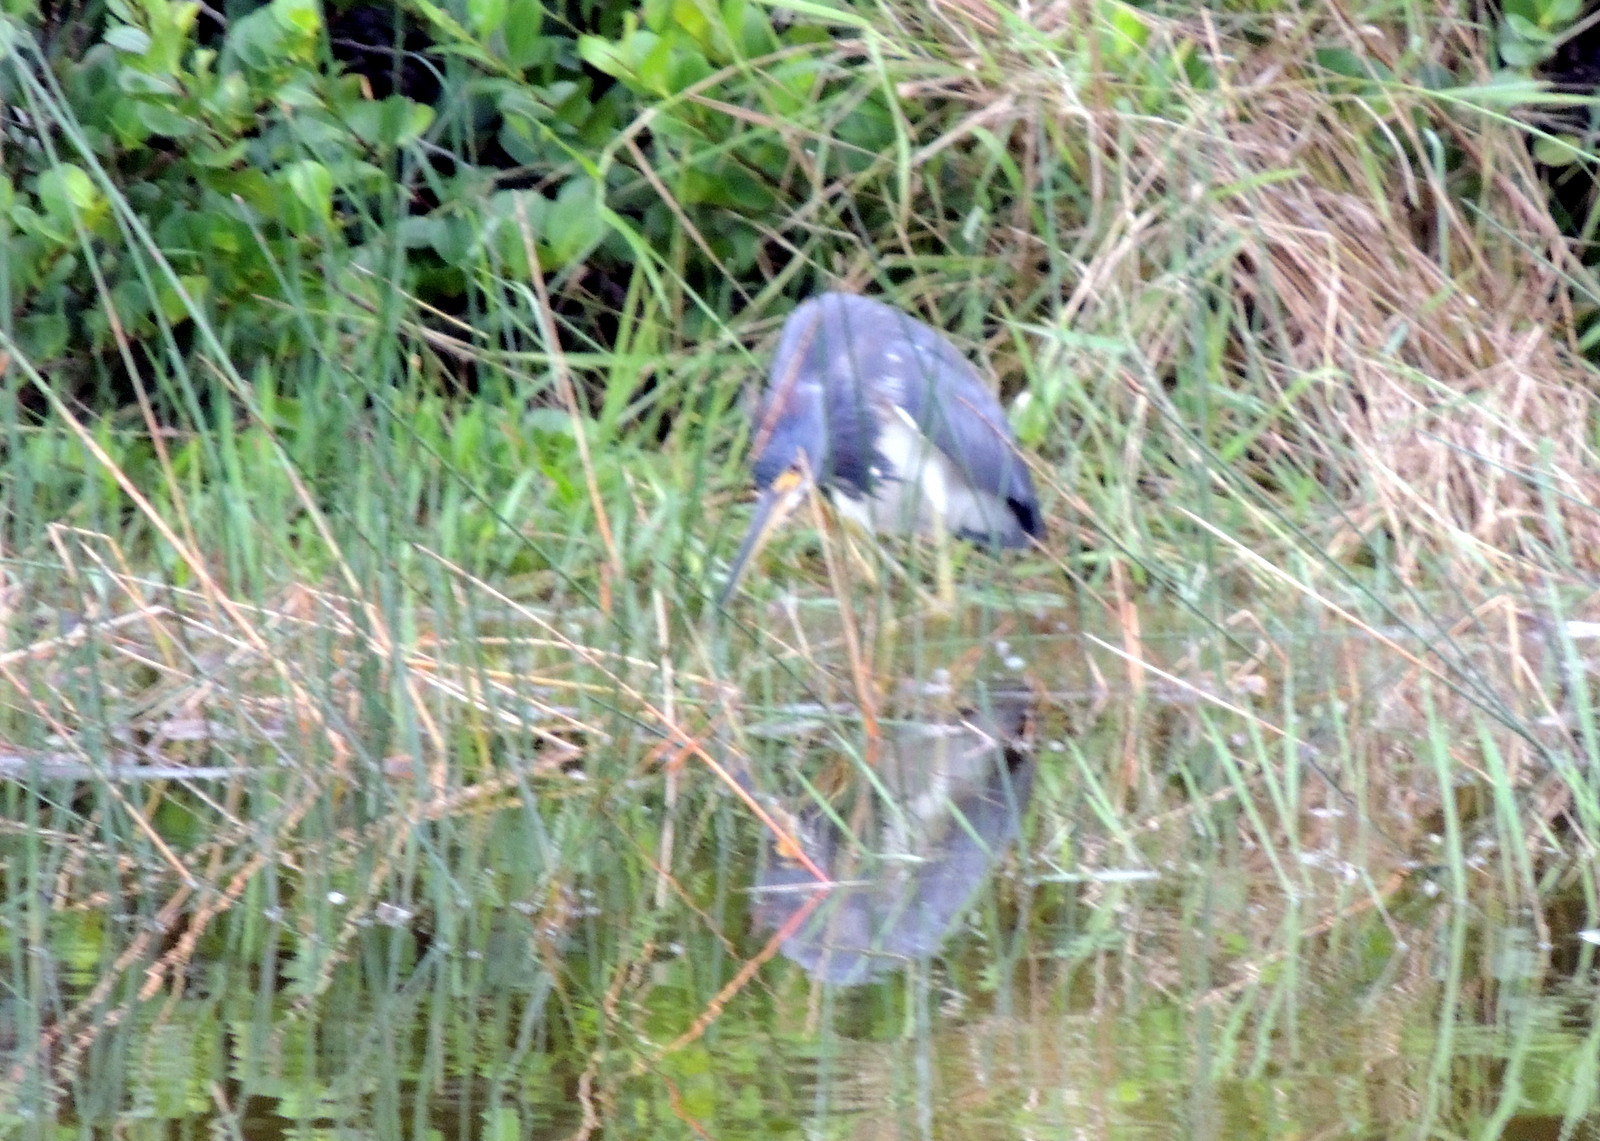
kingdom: Animalia
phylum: Chordata
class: Aves
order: Pelecaniformes
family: Ardeidae
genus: Egretta
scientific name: Egretta tricolor
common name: Tricolored heron
